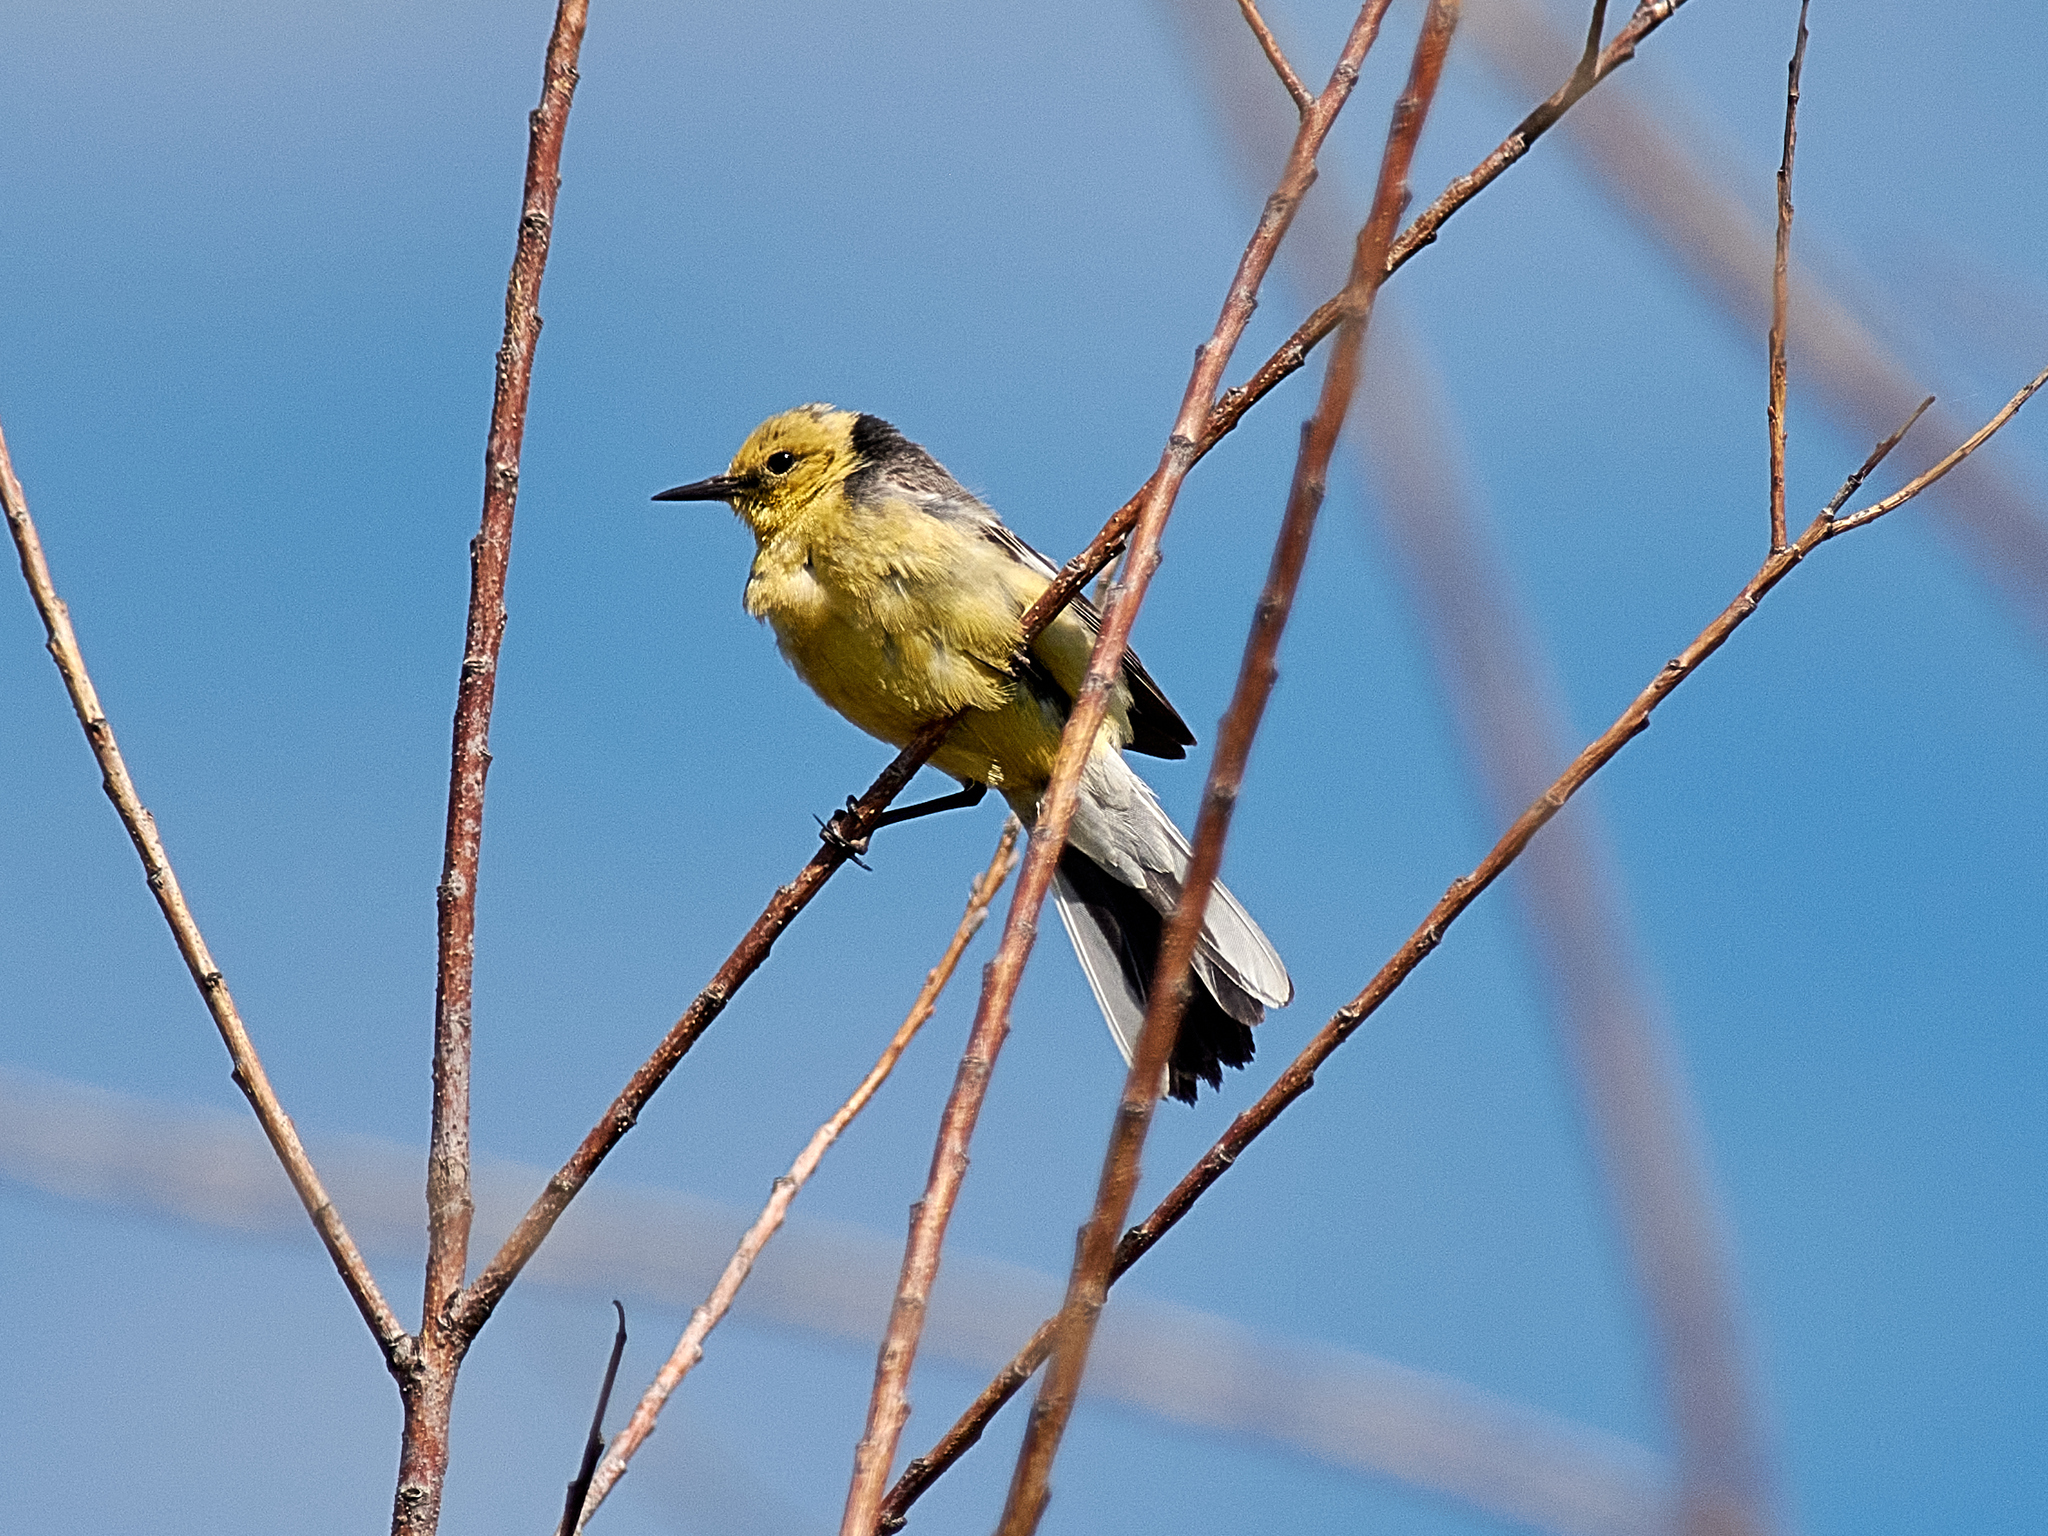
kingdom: Animalia
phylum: Chordata
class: Aves
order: Passeriformes
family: Motacillidae
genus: Motacilla
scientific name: Motacilla citreola
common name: Citrine wagtail
